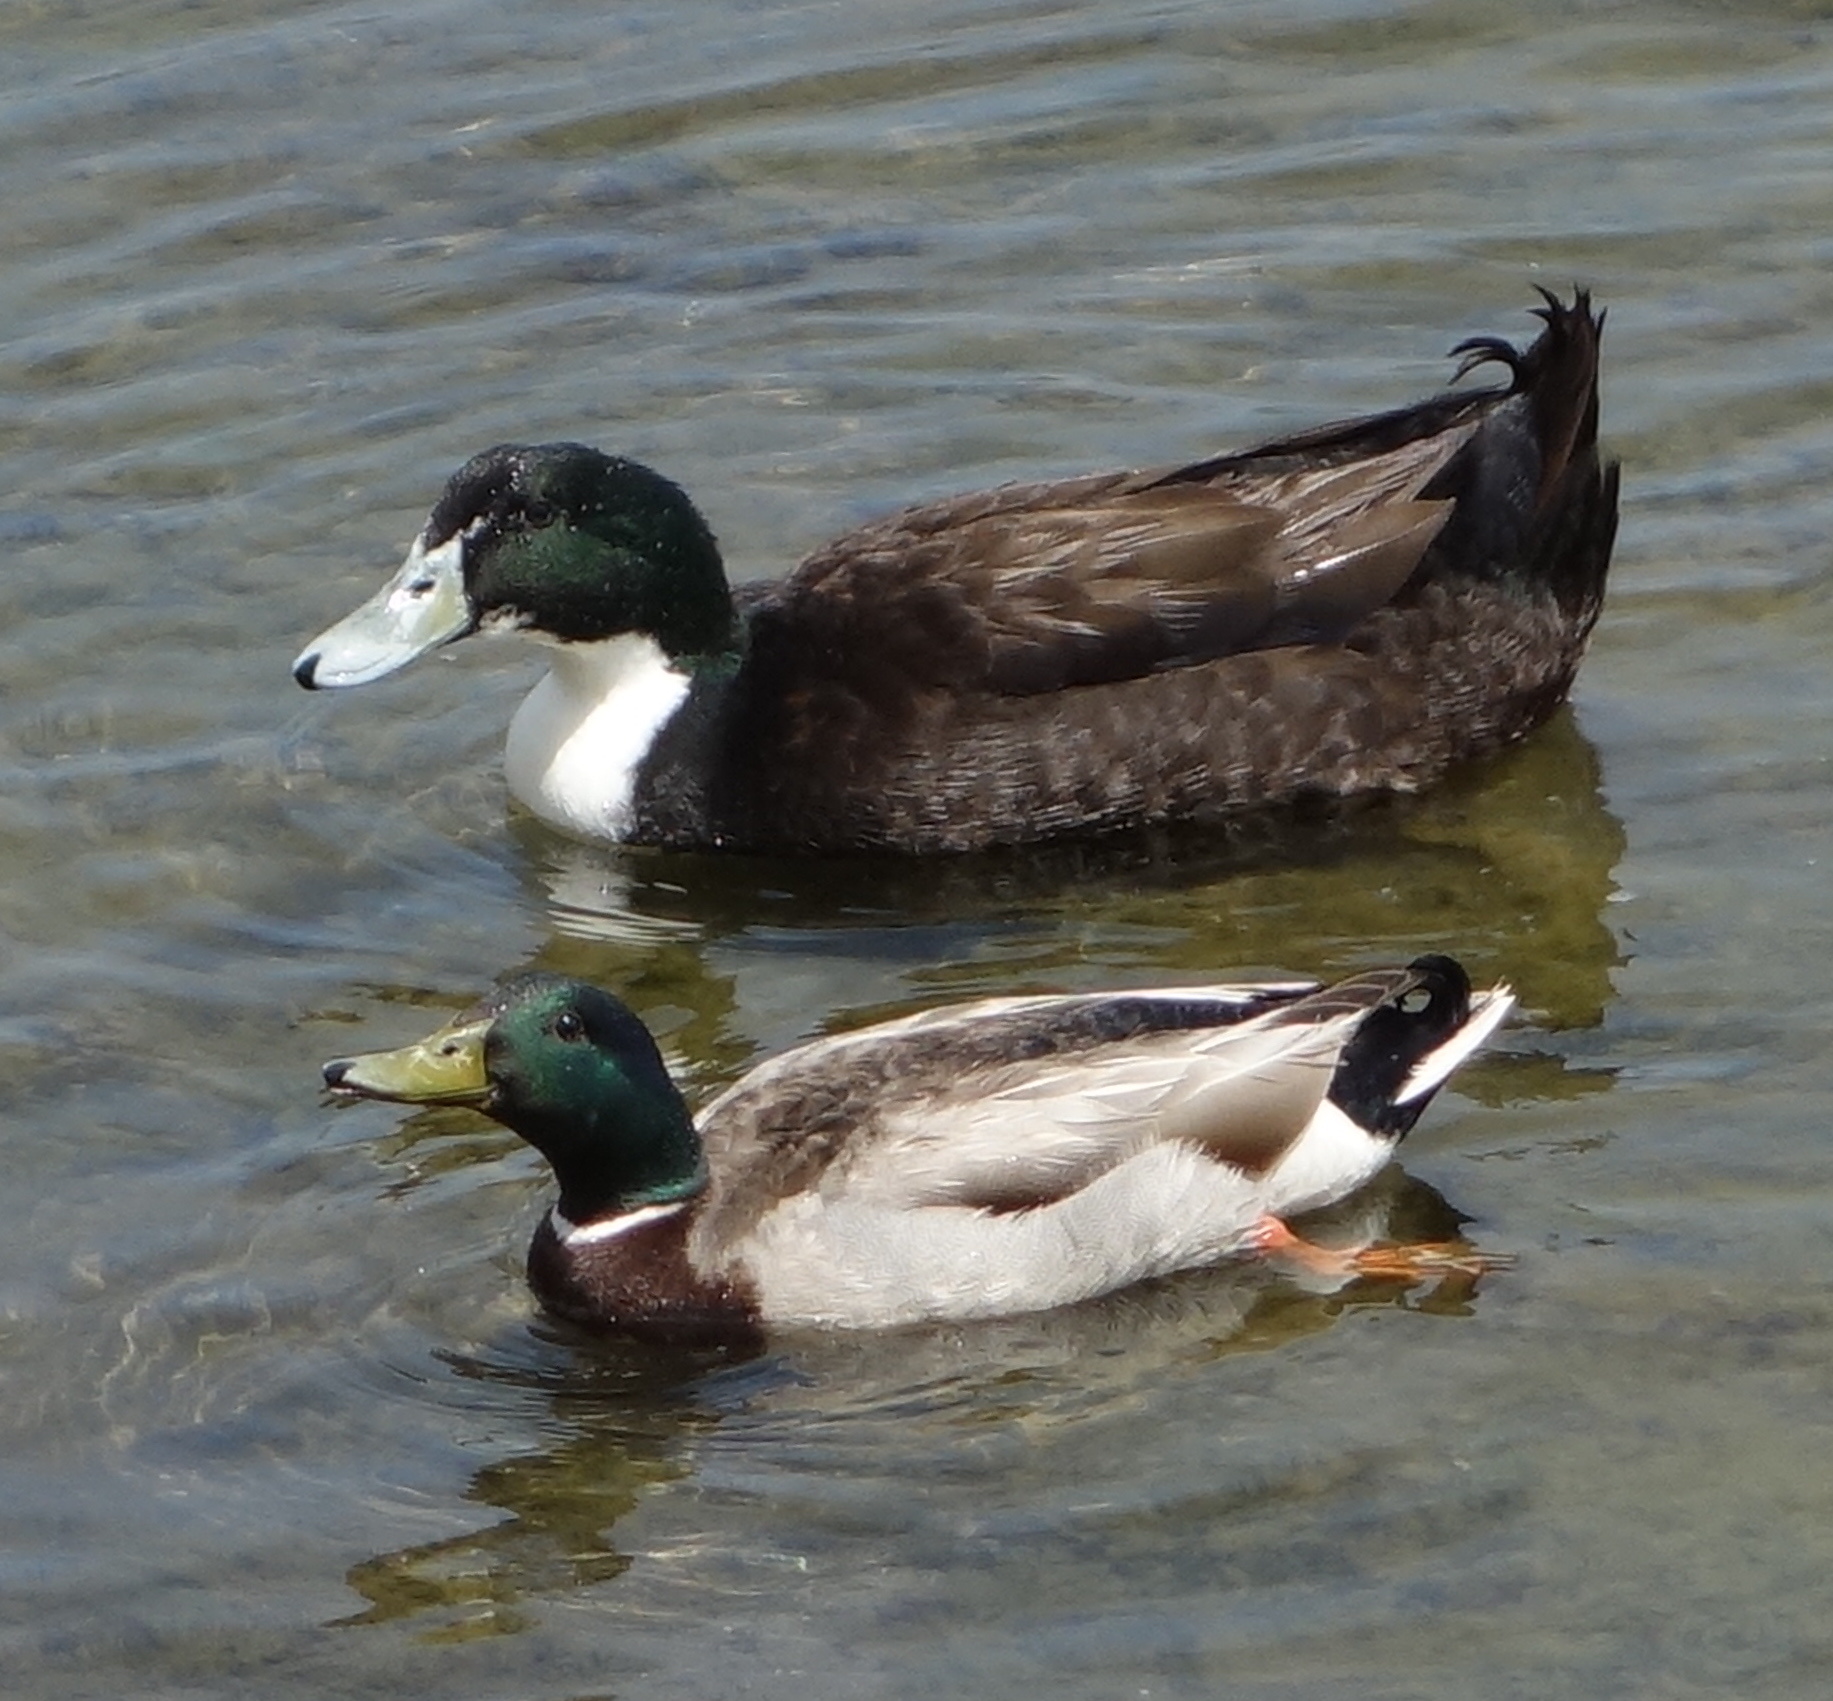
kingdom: Animalia
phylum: Chordata
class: Aves
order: Anseriformes
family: Anatidae
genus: Anas
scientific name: Anas platyrhynchos
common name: Mallard
